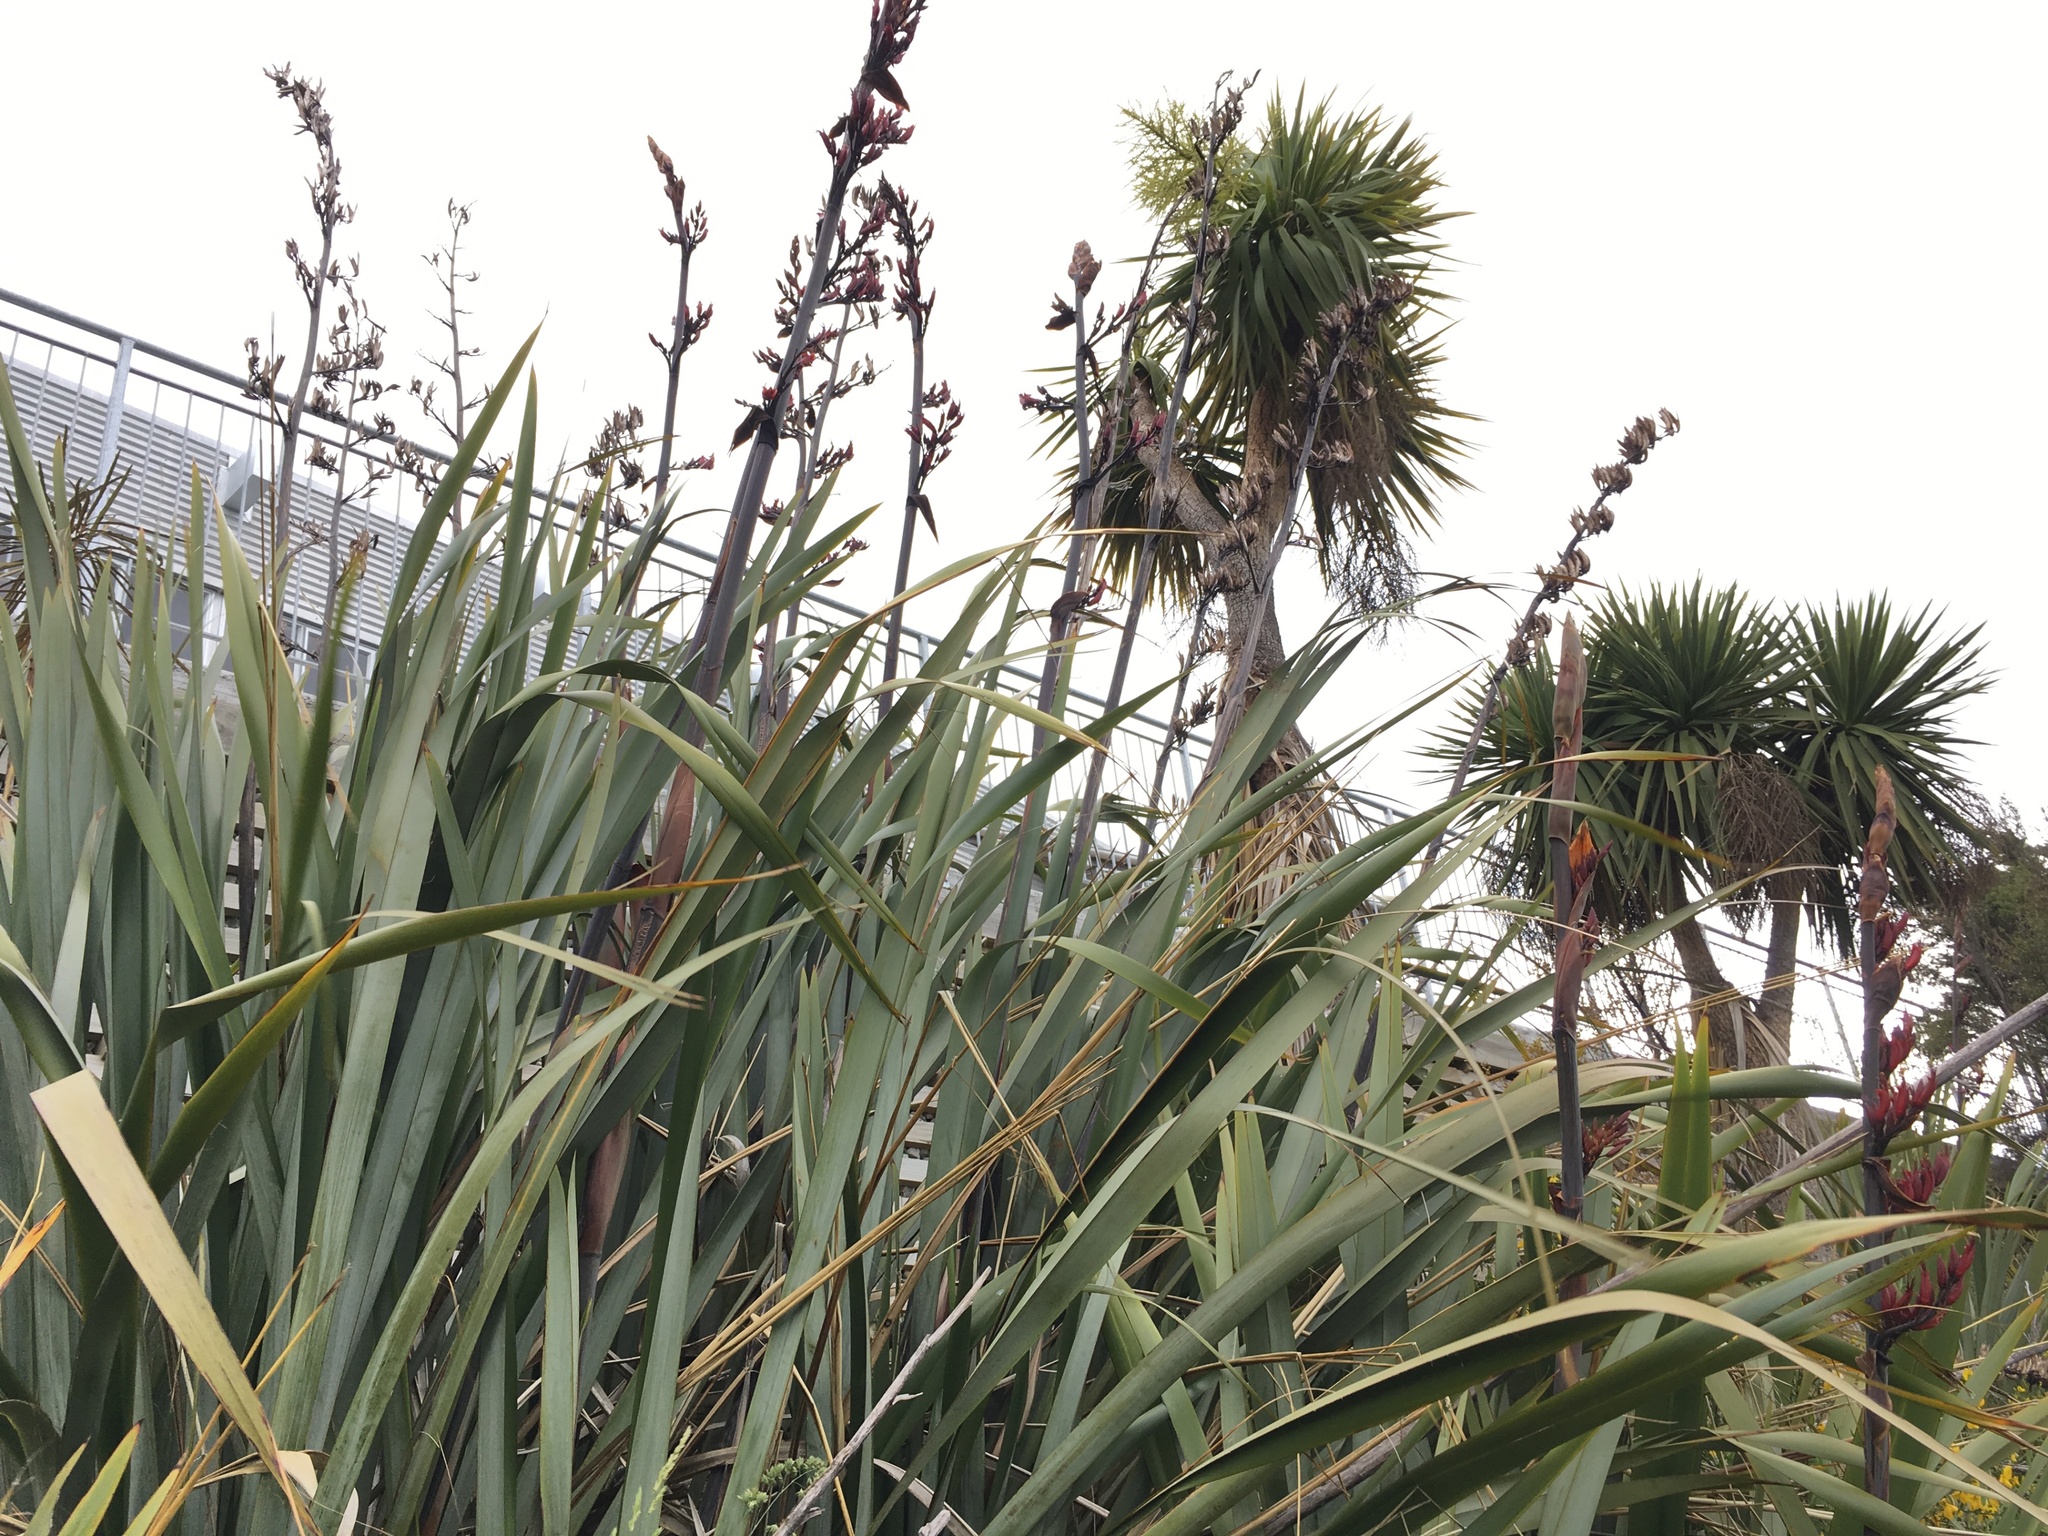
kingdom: Plantae
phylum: Tracheophyta
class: Liliopsida
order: Asparagales
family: Asphodelaceae
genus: Phormium
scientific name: Phormium tenax
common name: New zealand flax
